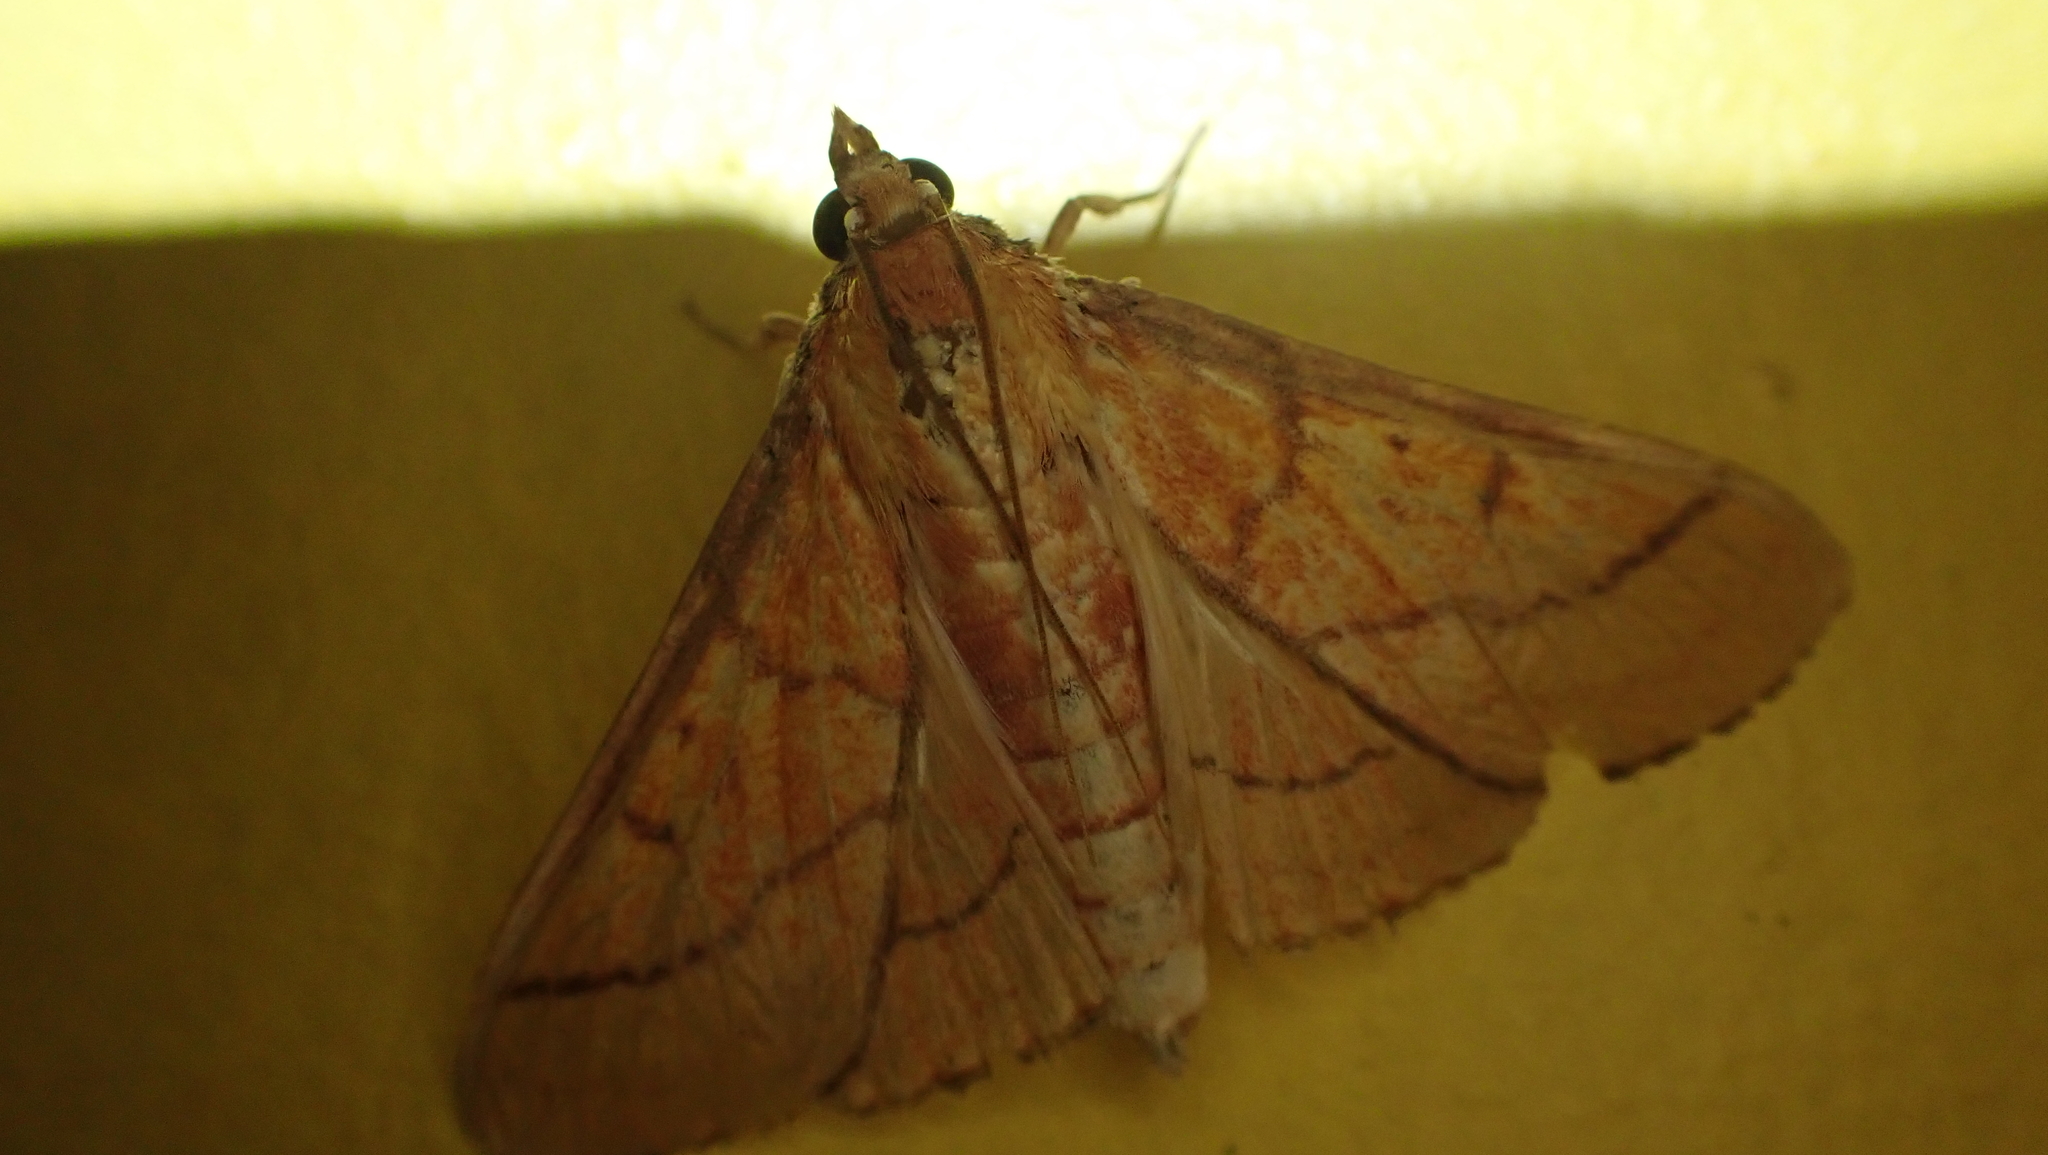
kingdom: Animalia
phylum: Arthropoda
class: Insecta
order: Lepidoptera
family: Crambidae
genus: Polygrammodes
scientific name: Polygrammodes hercules
